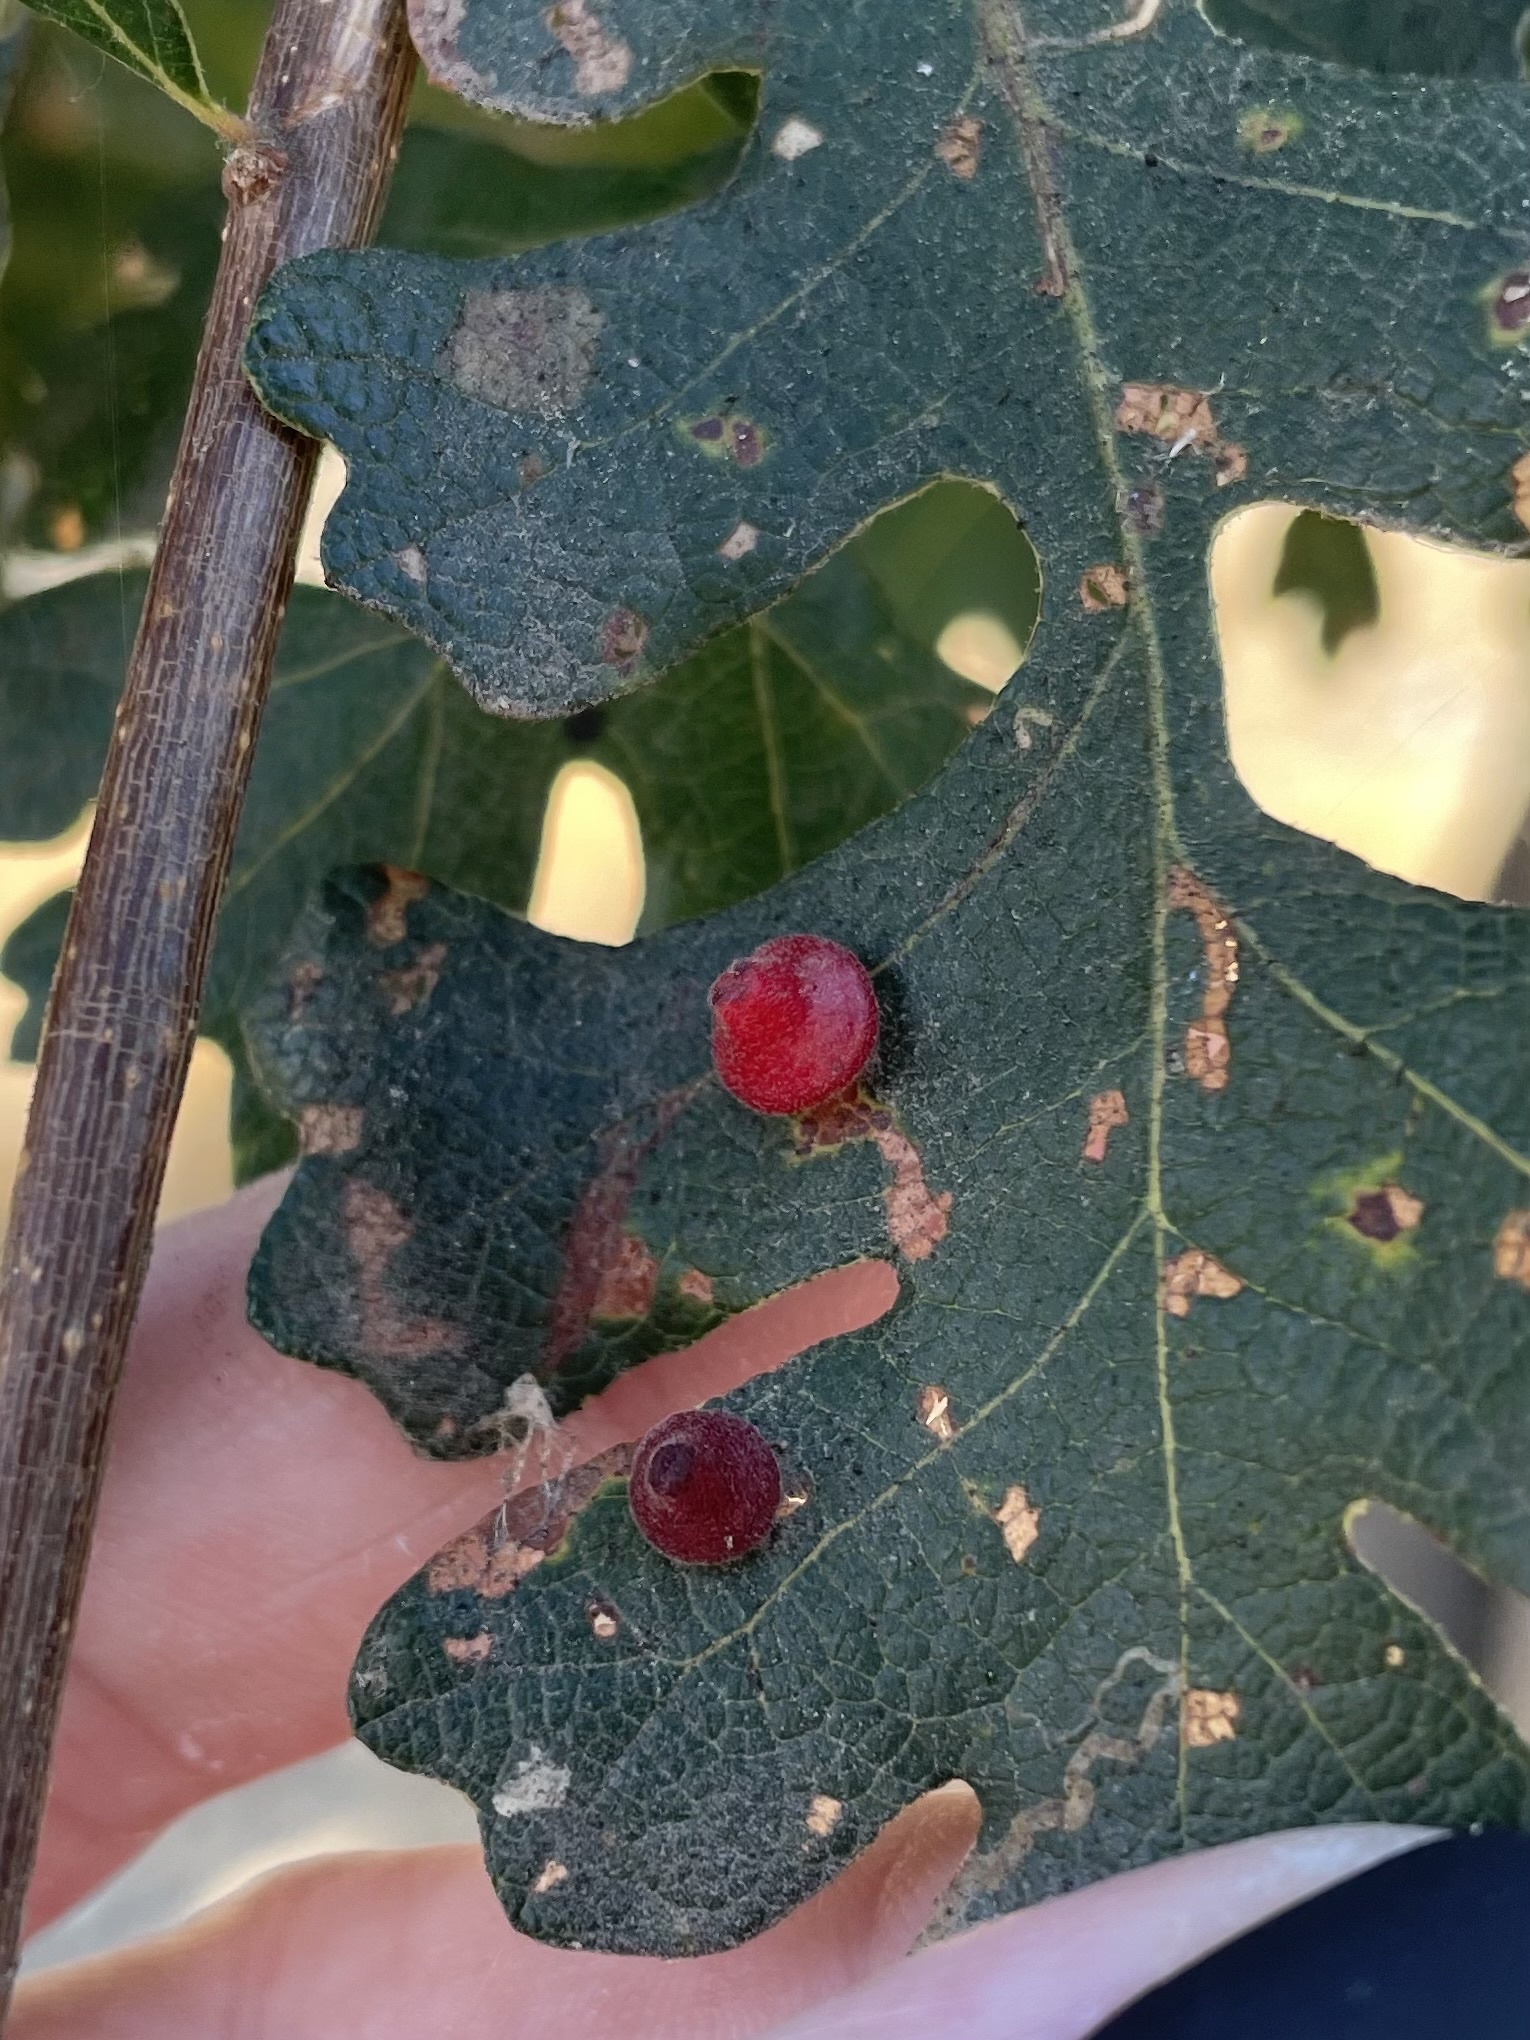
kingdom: Animalia
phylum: Arthropoda
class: Insecta
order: Hymenoptera
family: Cynipidae
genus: Andricus
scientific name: Andricus
